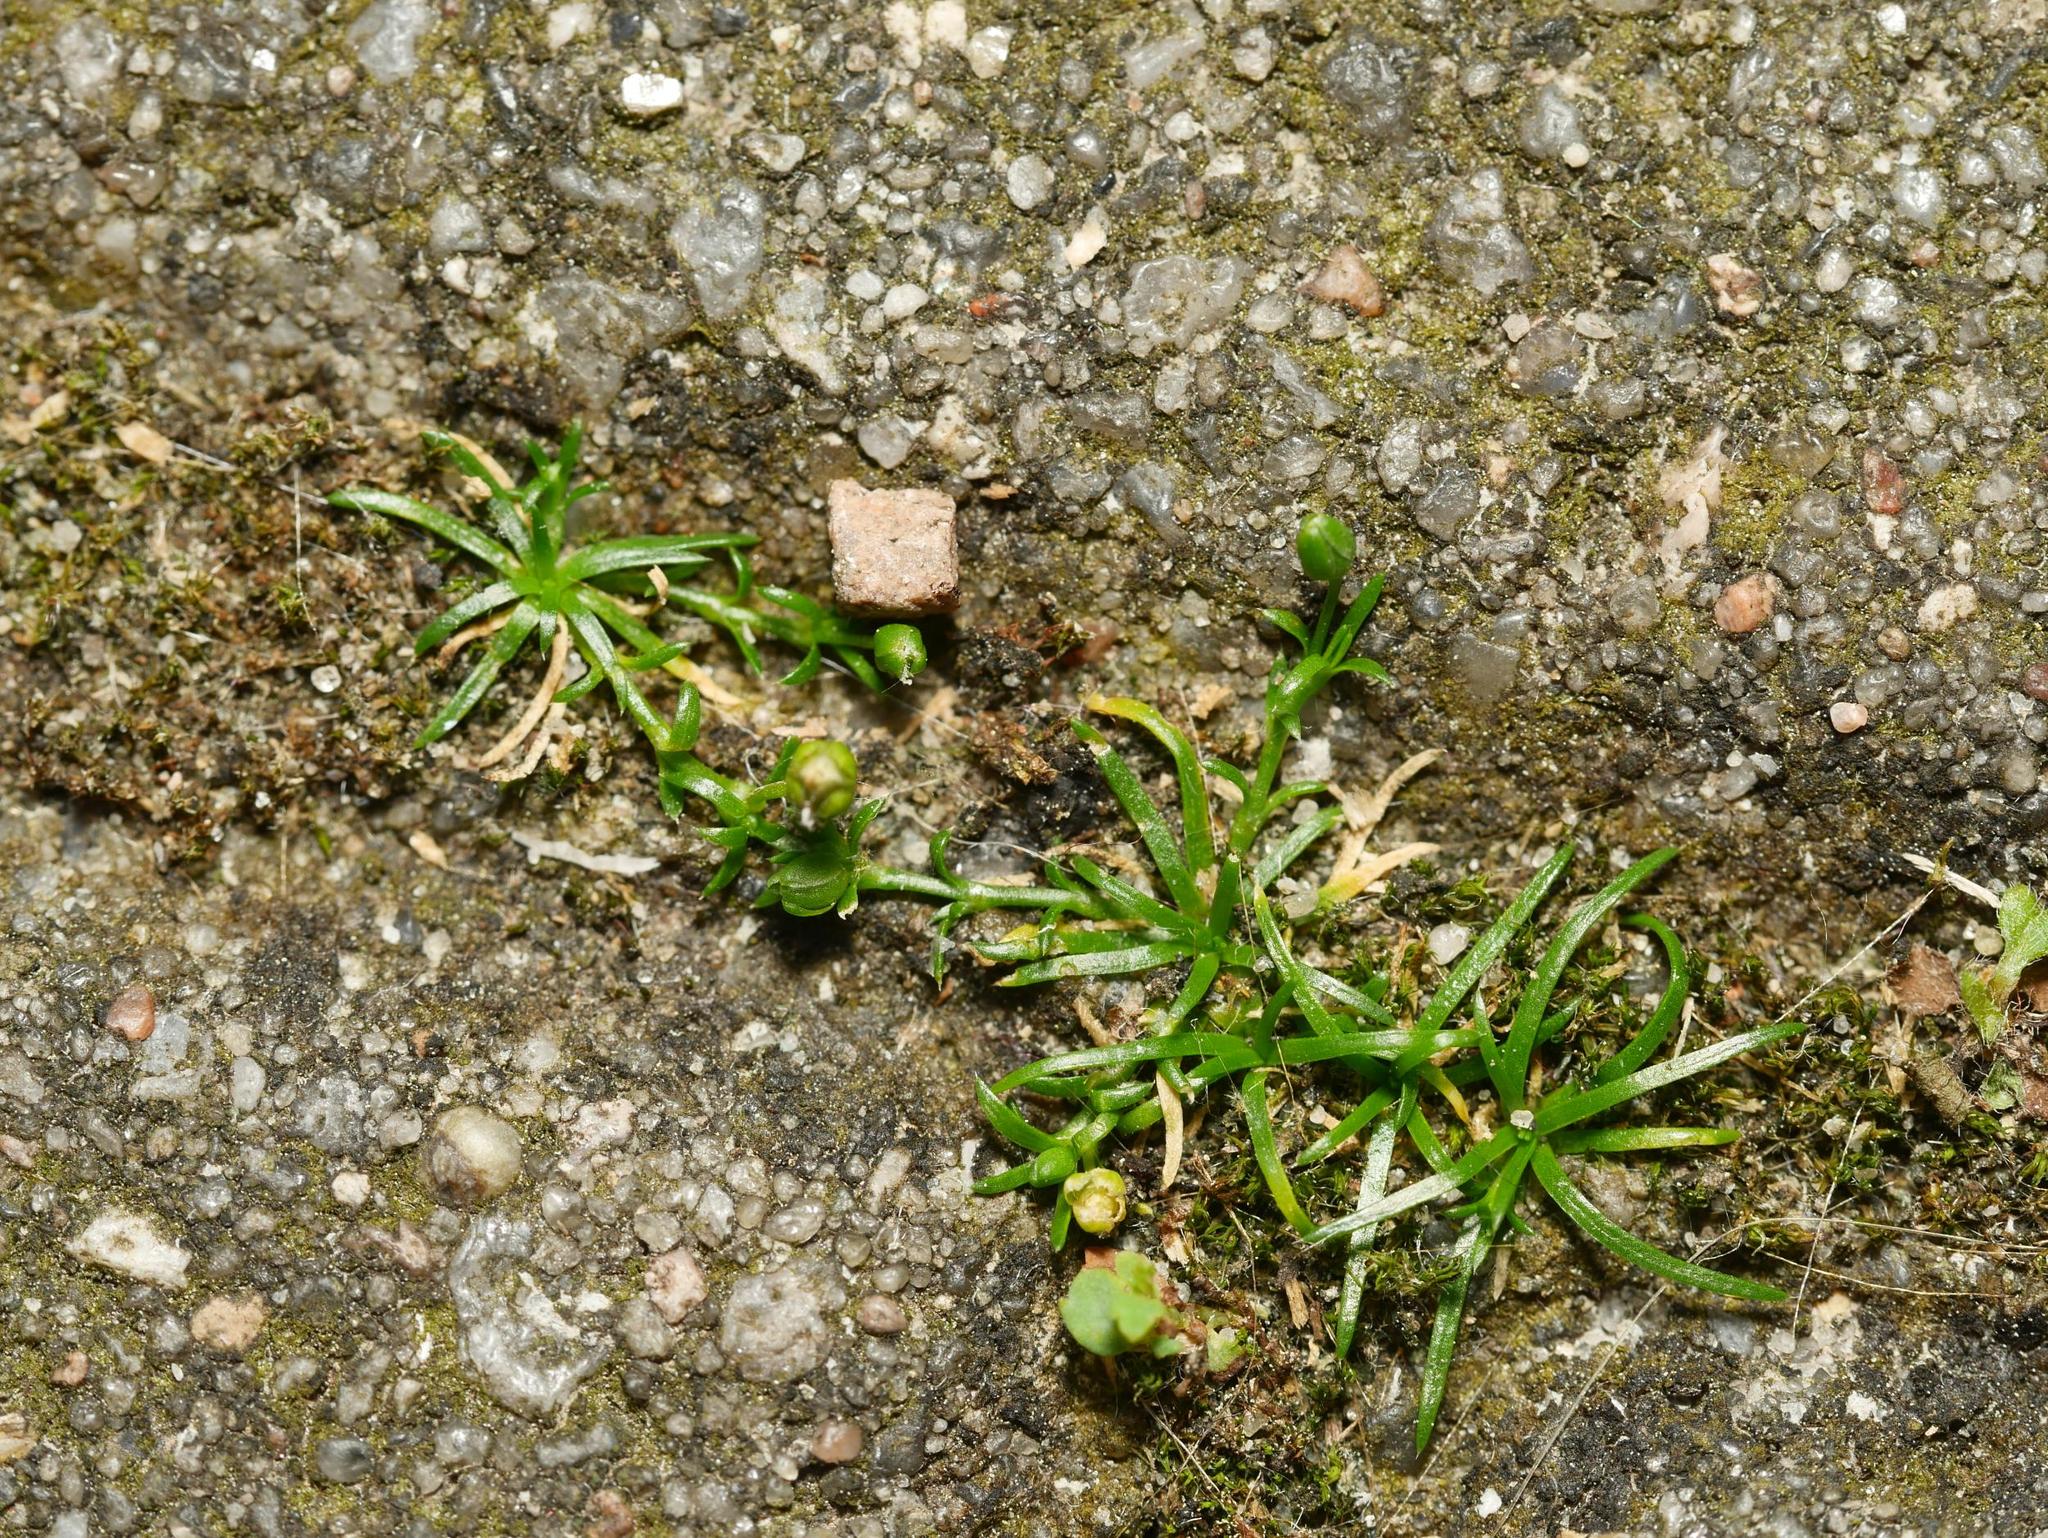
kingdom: Plantae
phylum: Tracheophyta
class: Magnoliopsida
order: Caryophyllales
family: Caryophyllaceae
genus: Sagina
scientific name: Sagina procumbens
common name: Procumbent pearlwort
